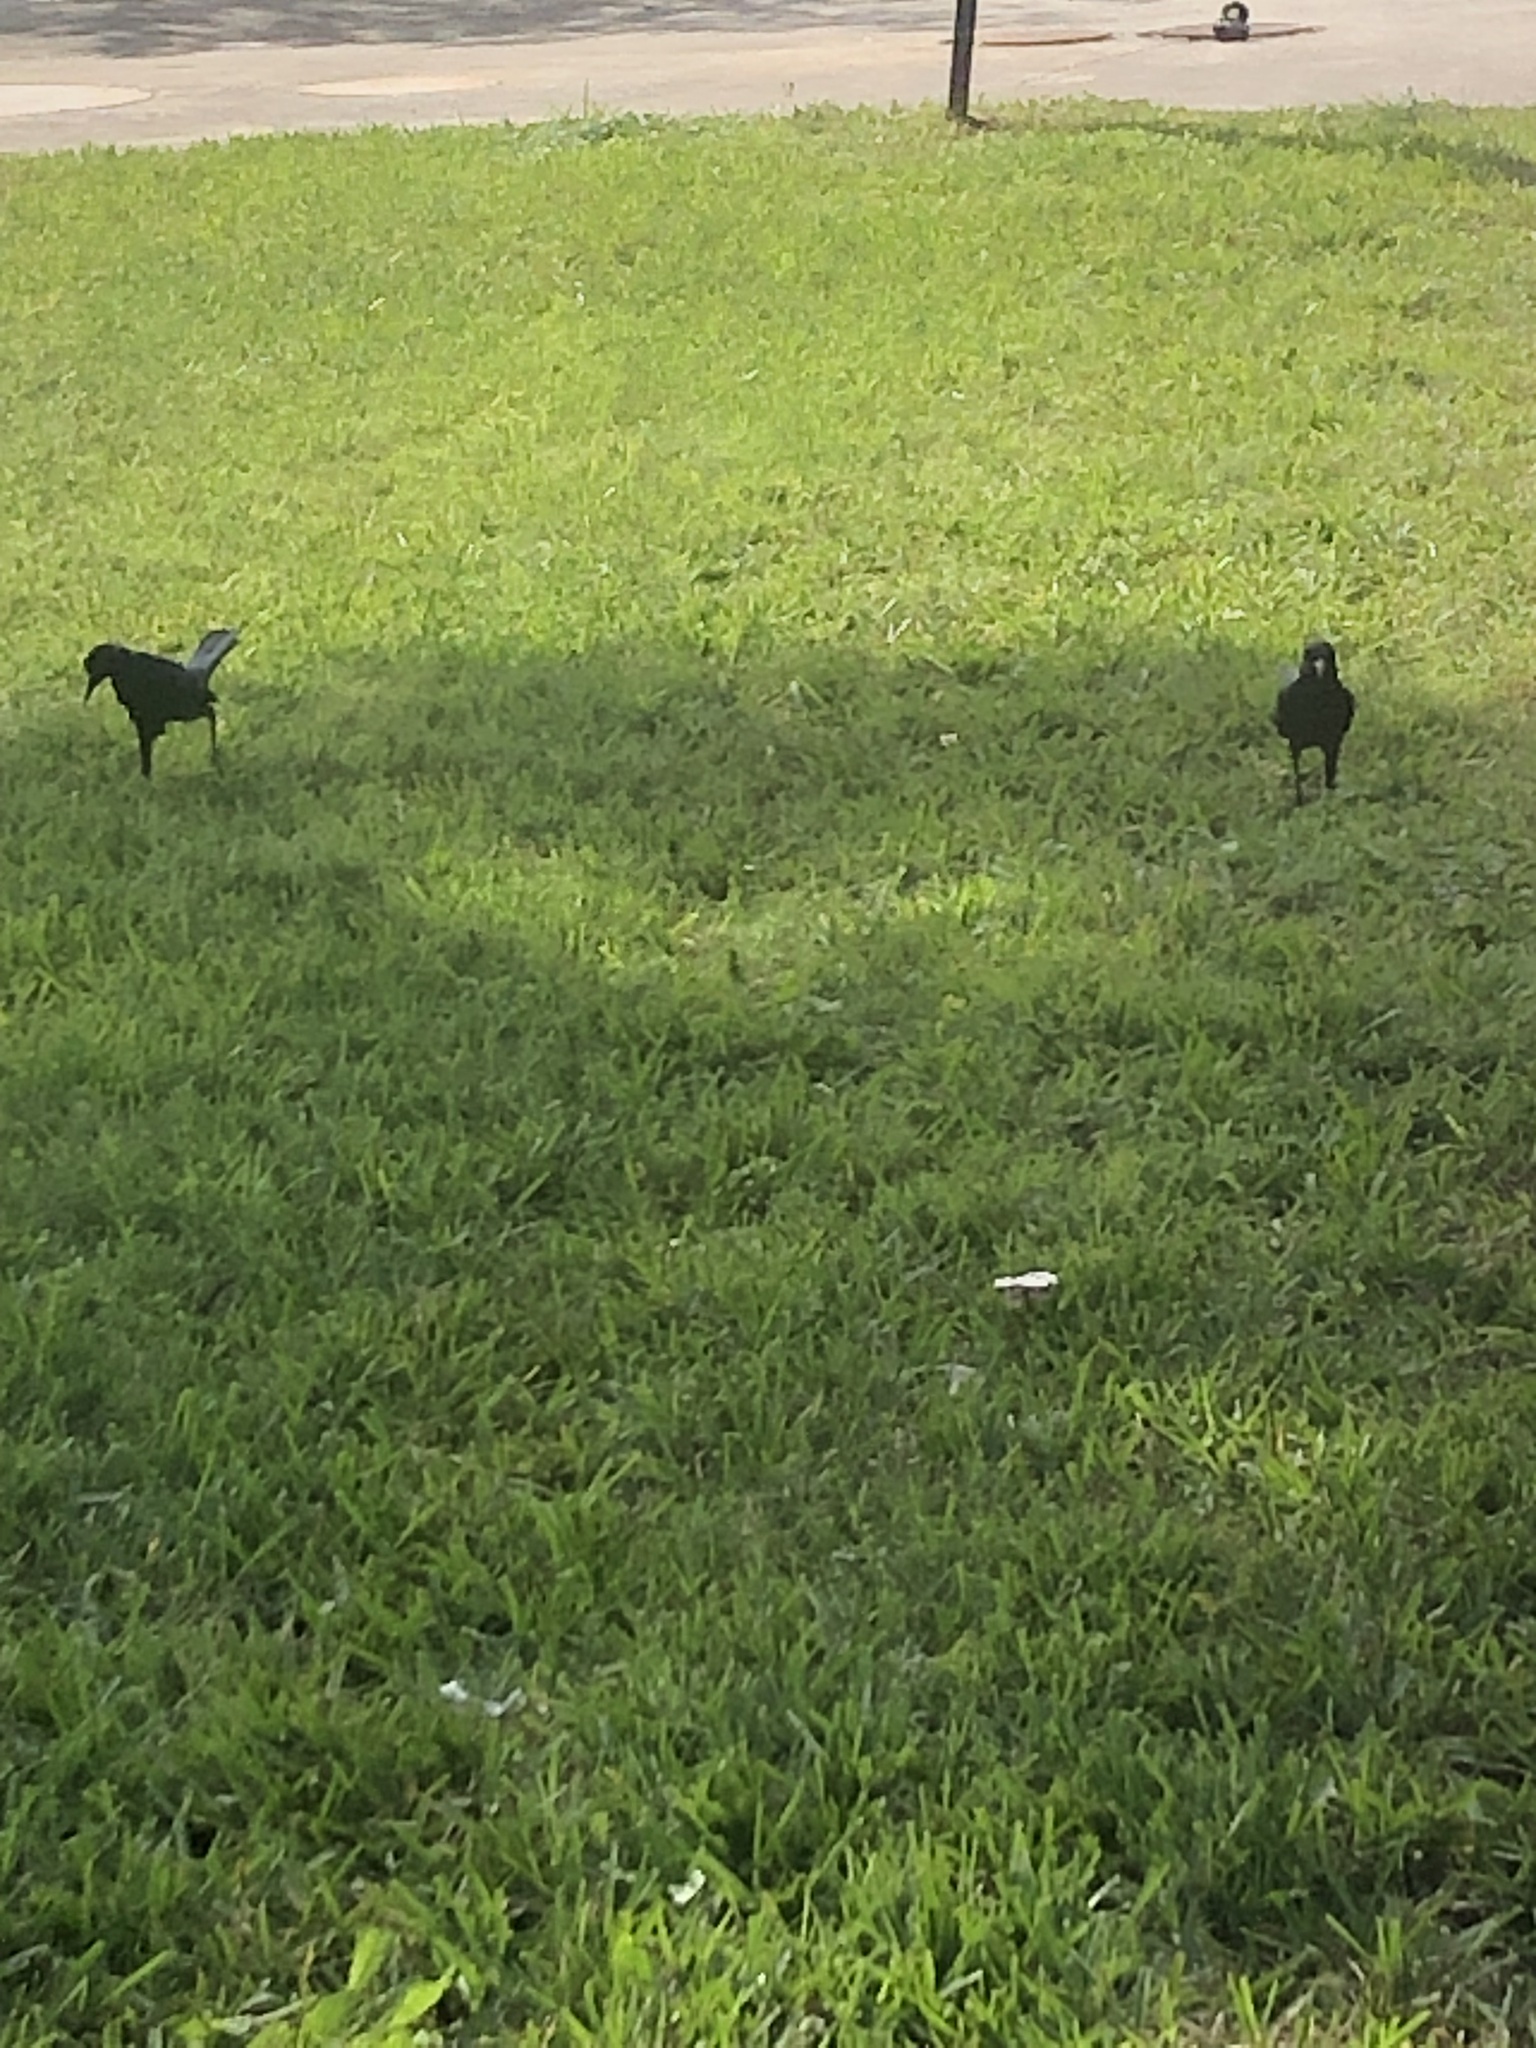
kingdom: Animalia
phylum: Chordata
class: Aves
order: Passeriformes
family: Icteridae
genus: Quiscalus
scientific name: Quiscalus major
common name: Boat-tailed grackle
